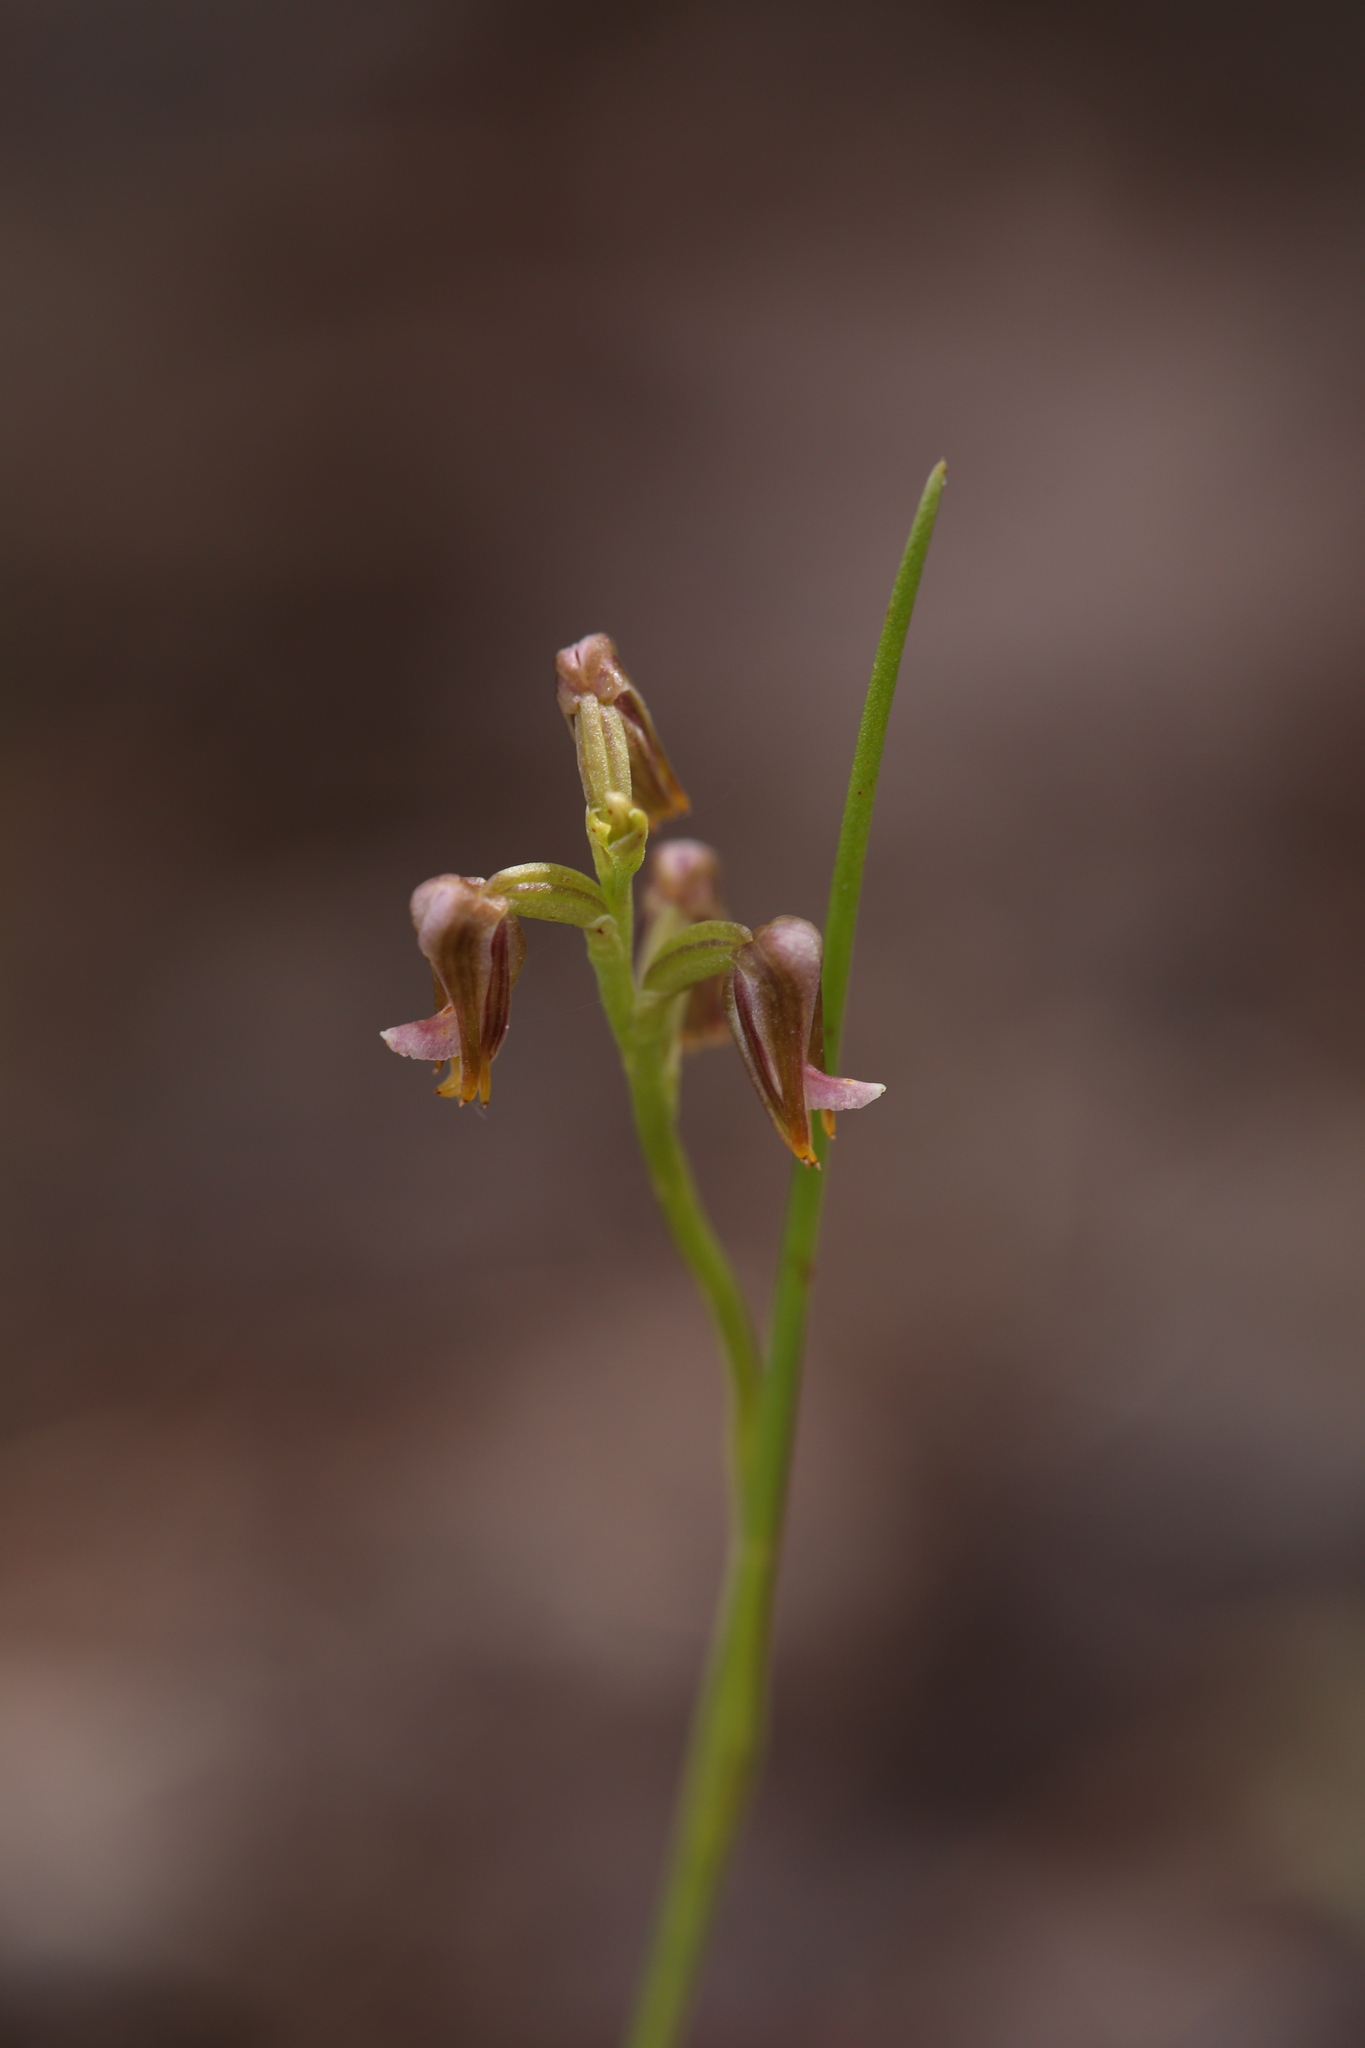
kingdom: Plantae
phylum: Tracheophyta
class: Liliopsida
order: Asparagales
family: Orchidaceae
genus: Prasophyllum
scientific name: Prasophyllum parvifolium
